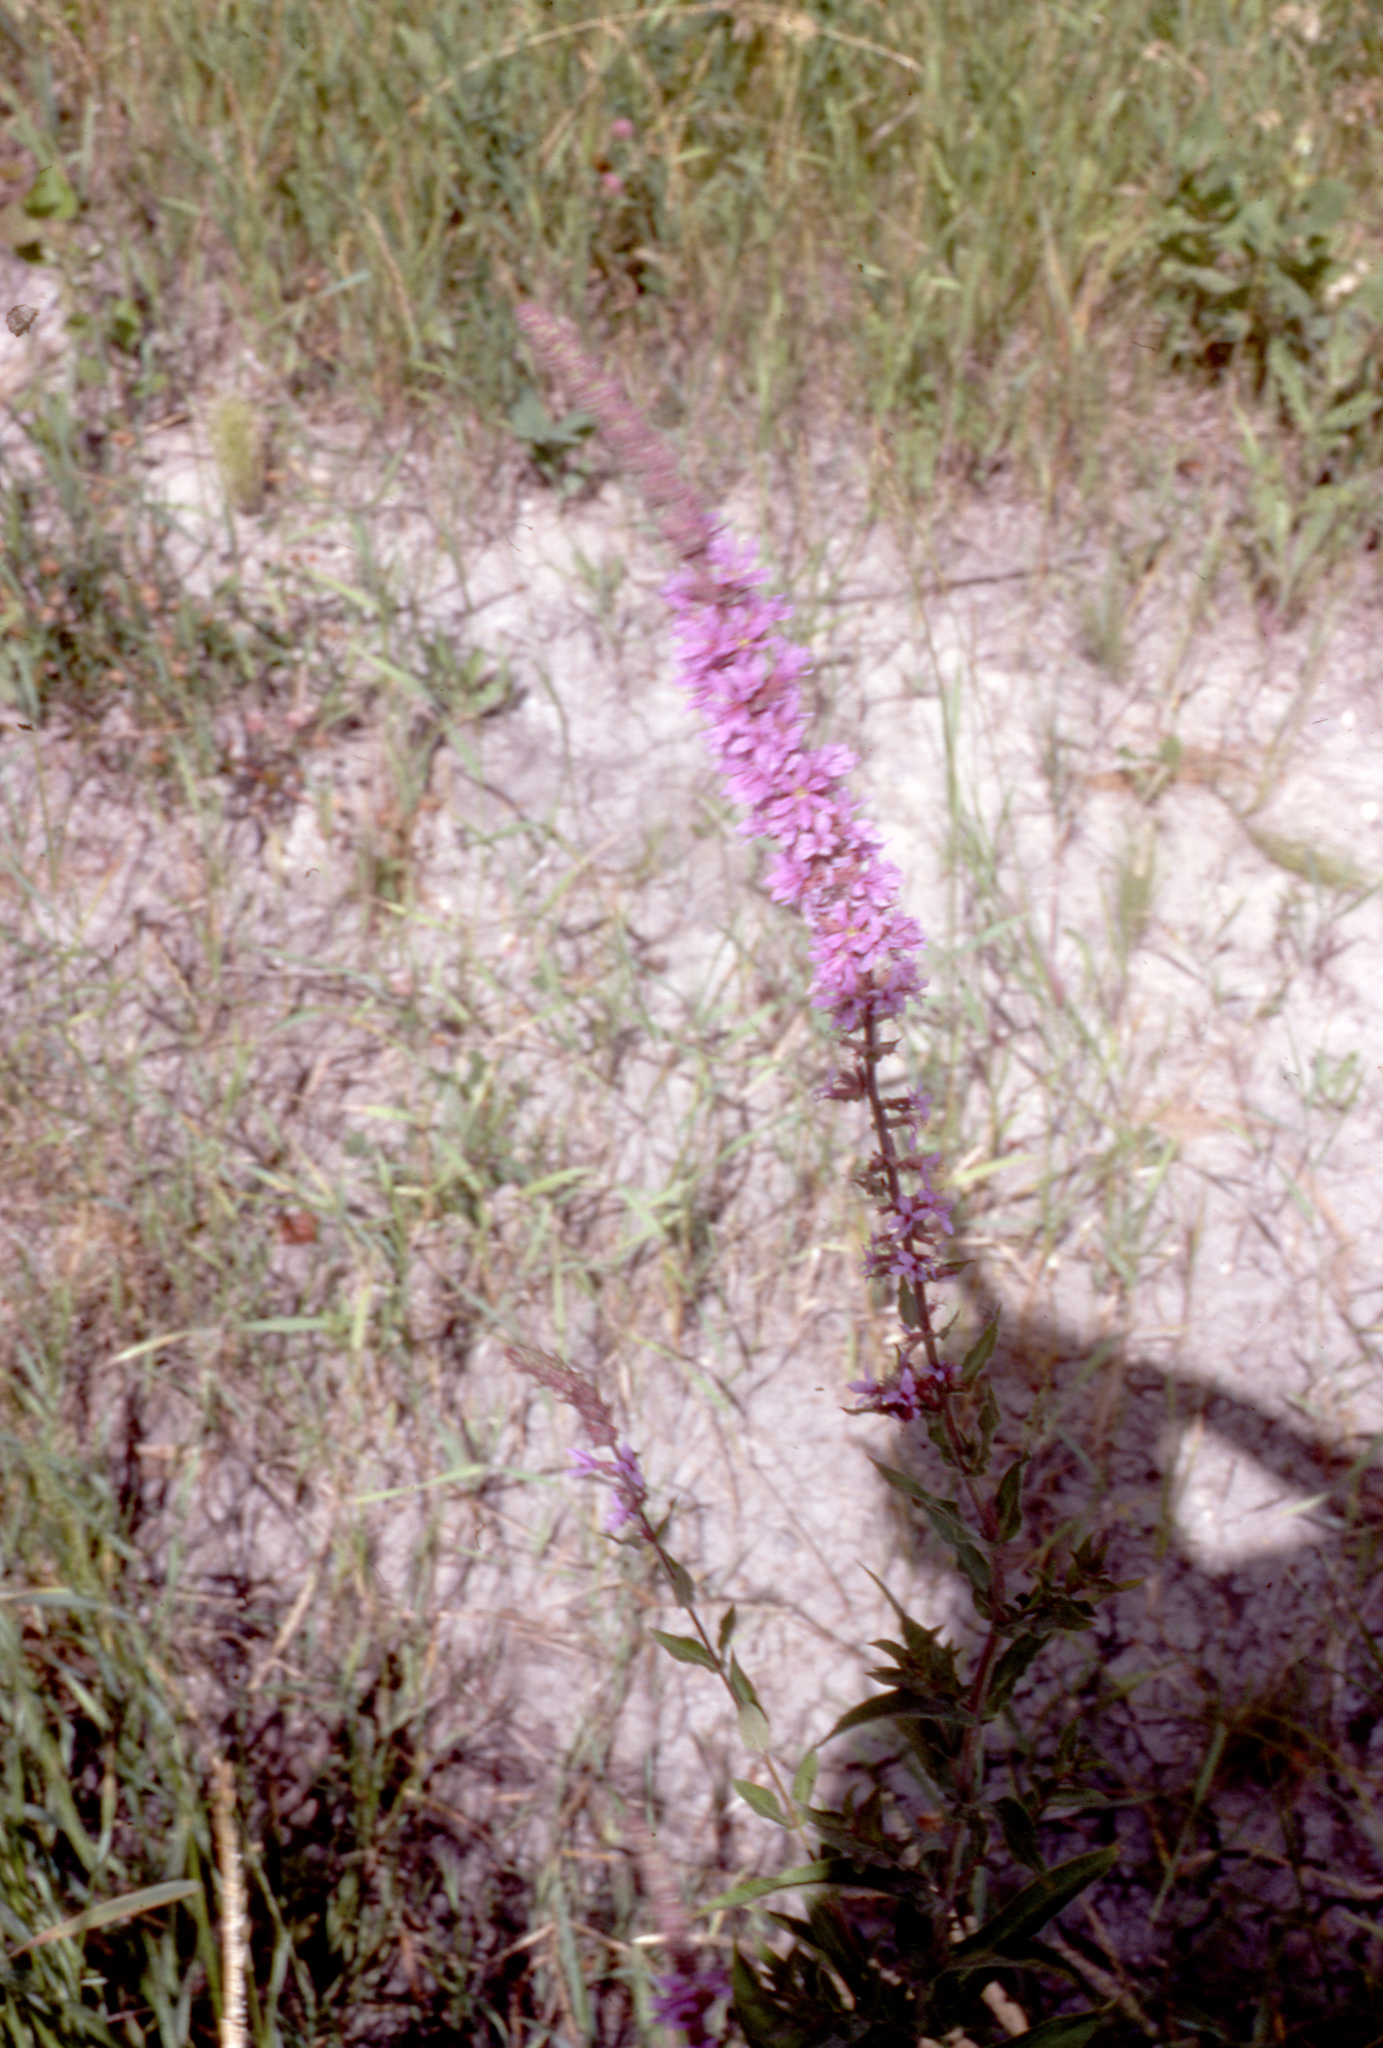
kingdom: Plantae
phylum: Tracheophyta
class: Magnoliopsida
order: Myrtales
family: Lythraceae
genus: Lythrum
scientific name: Lythrum salicaria
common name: Purple loosestrife
